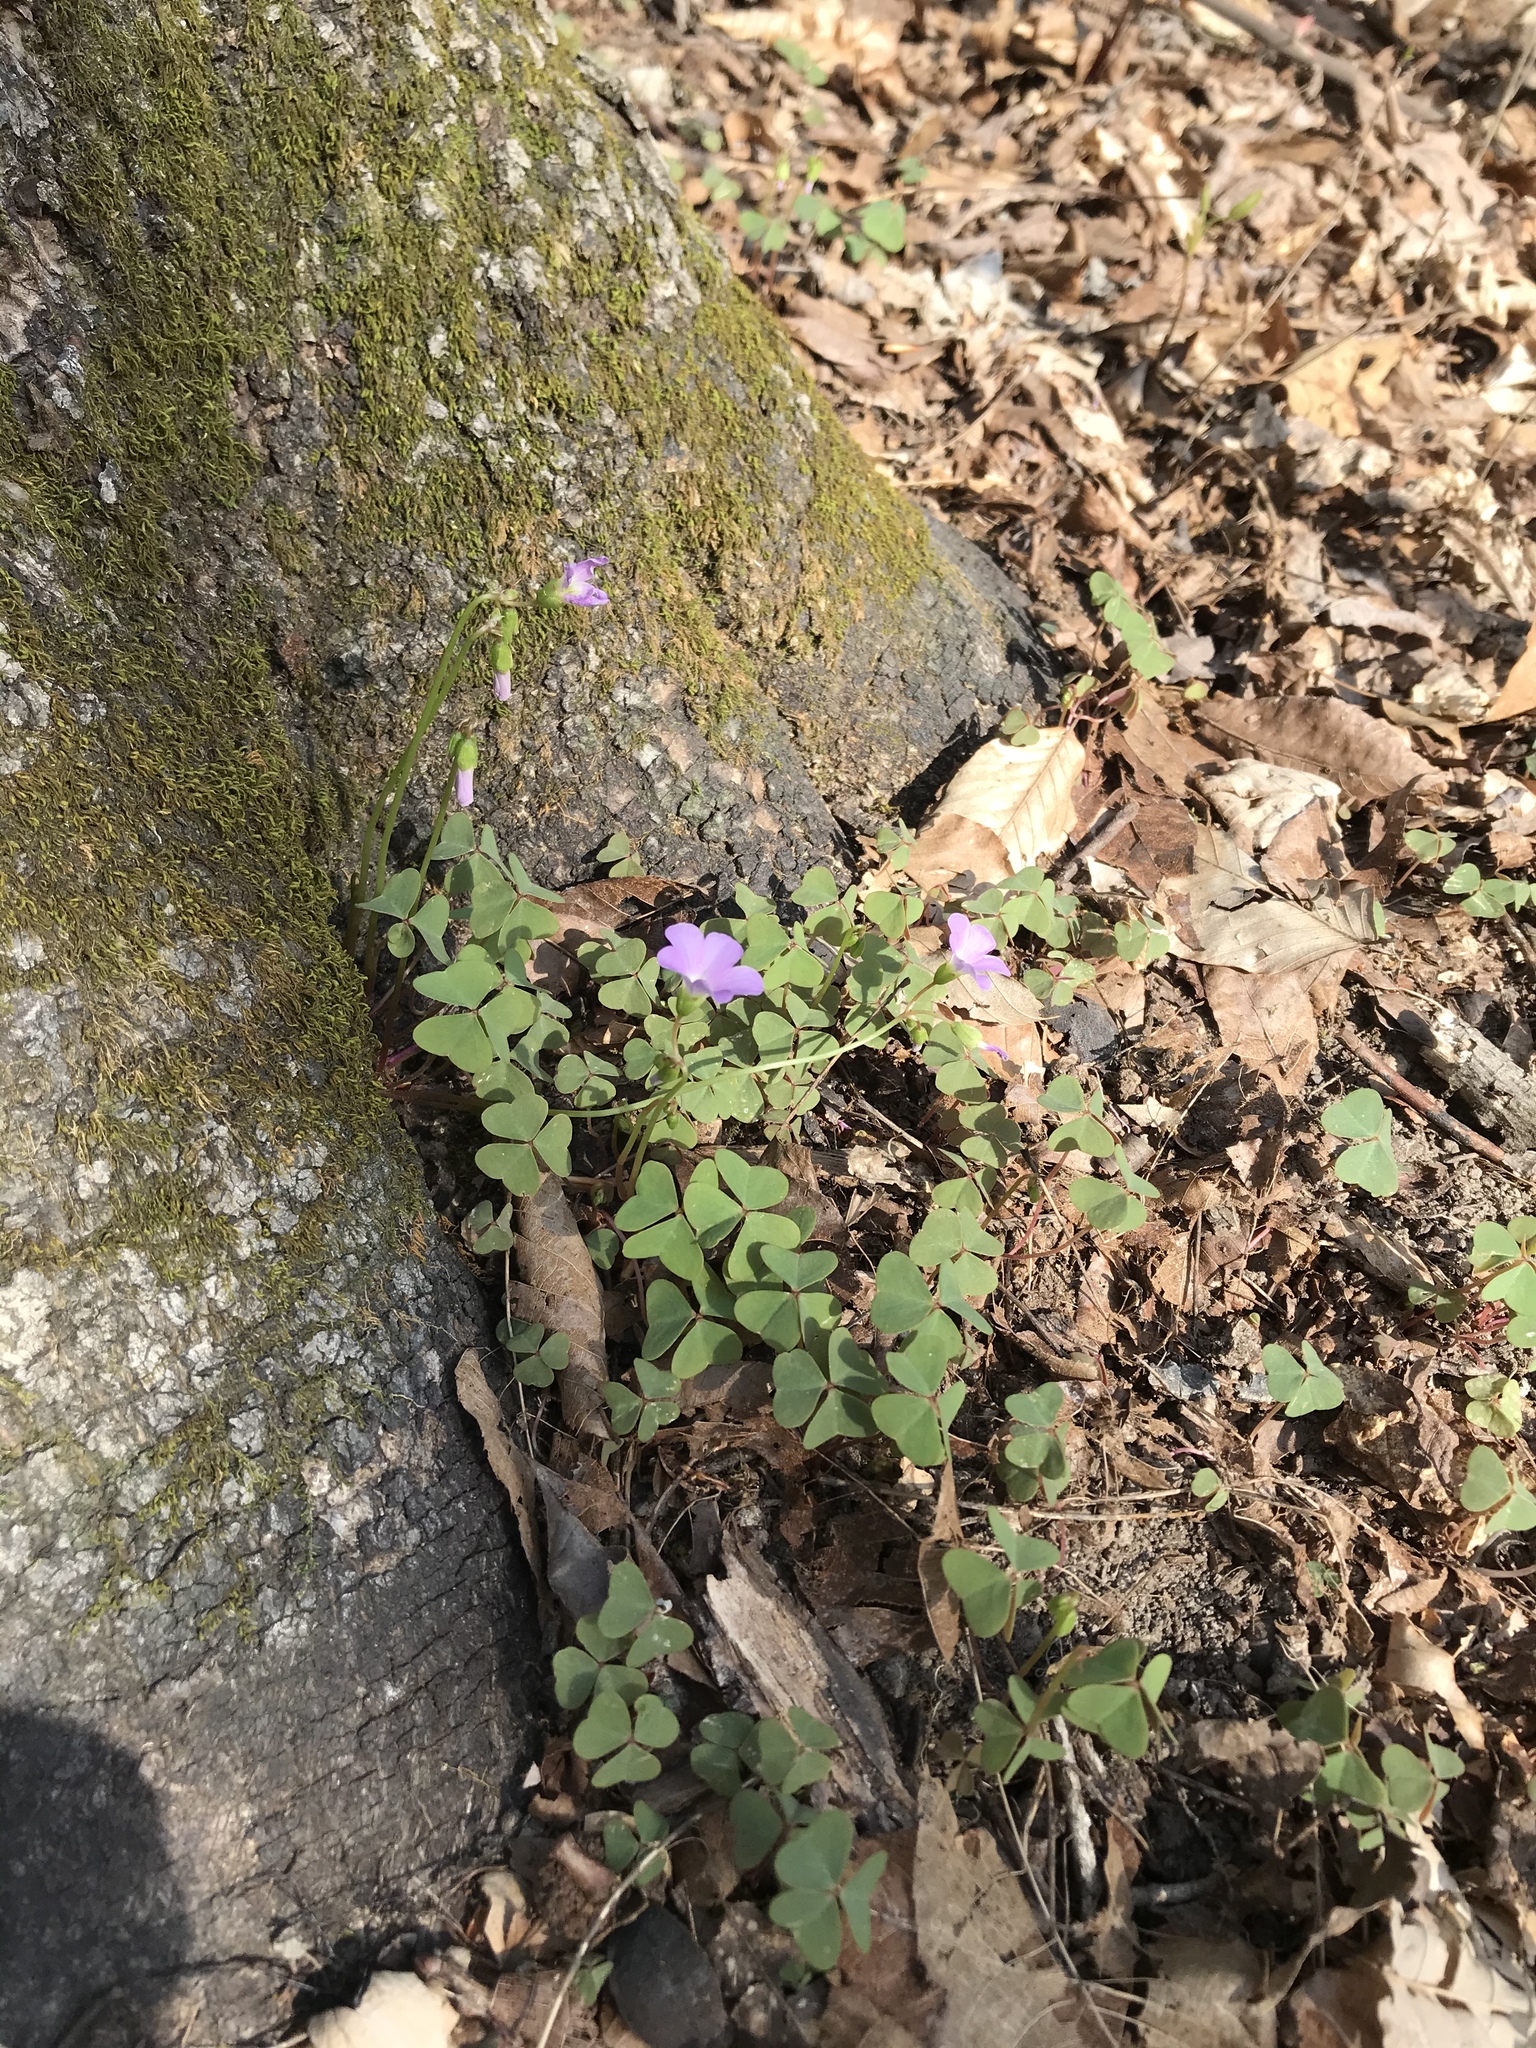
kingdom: Plantae
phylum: Tracheophyta
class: Magnoliopsida
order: Oxalidales
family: Oxalidaceae
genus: Oxalis
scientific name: Oxalis violacea
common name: Violet wood-sorrel
